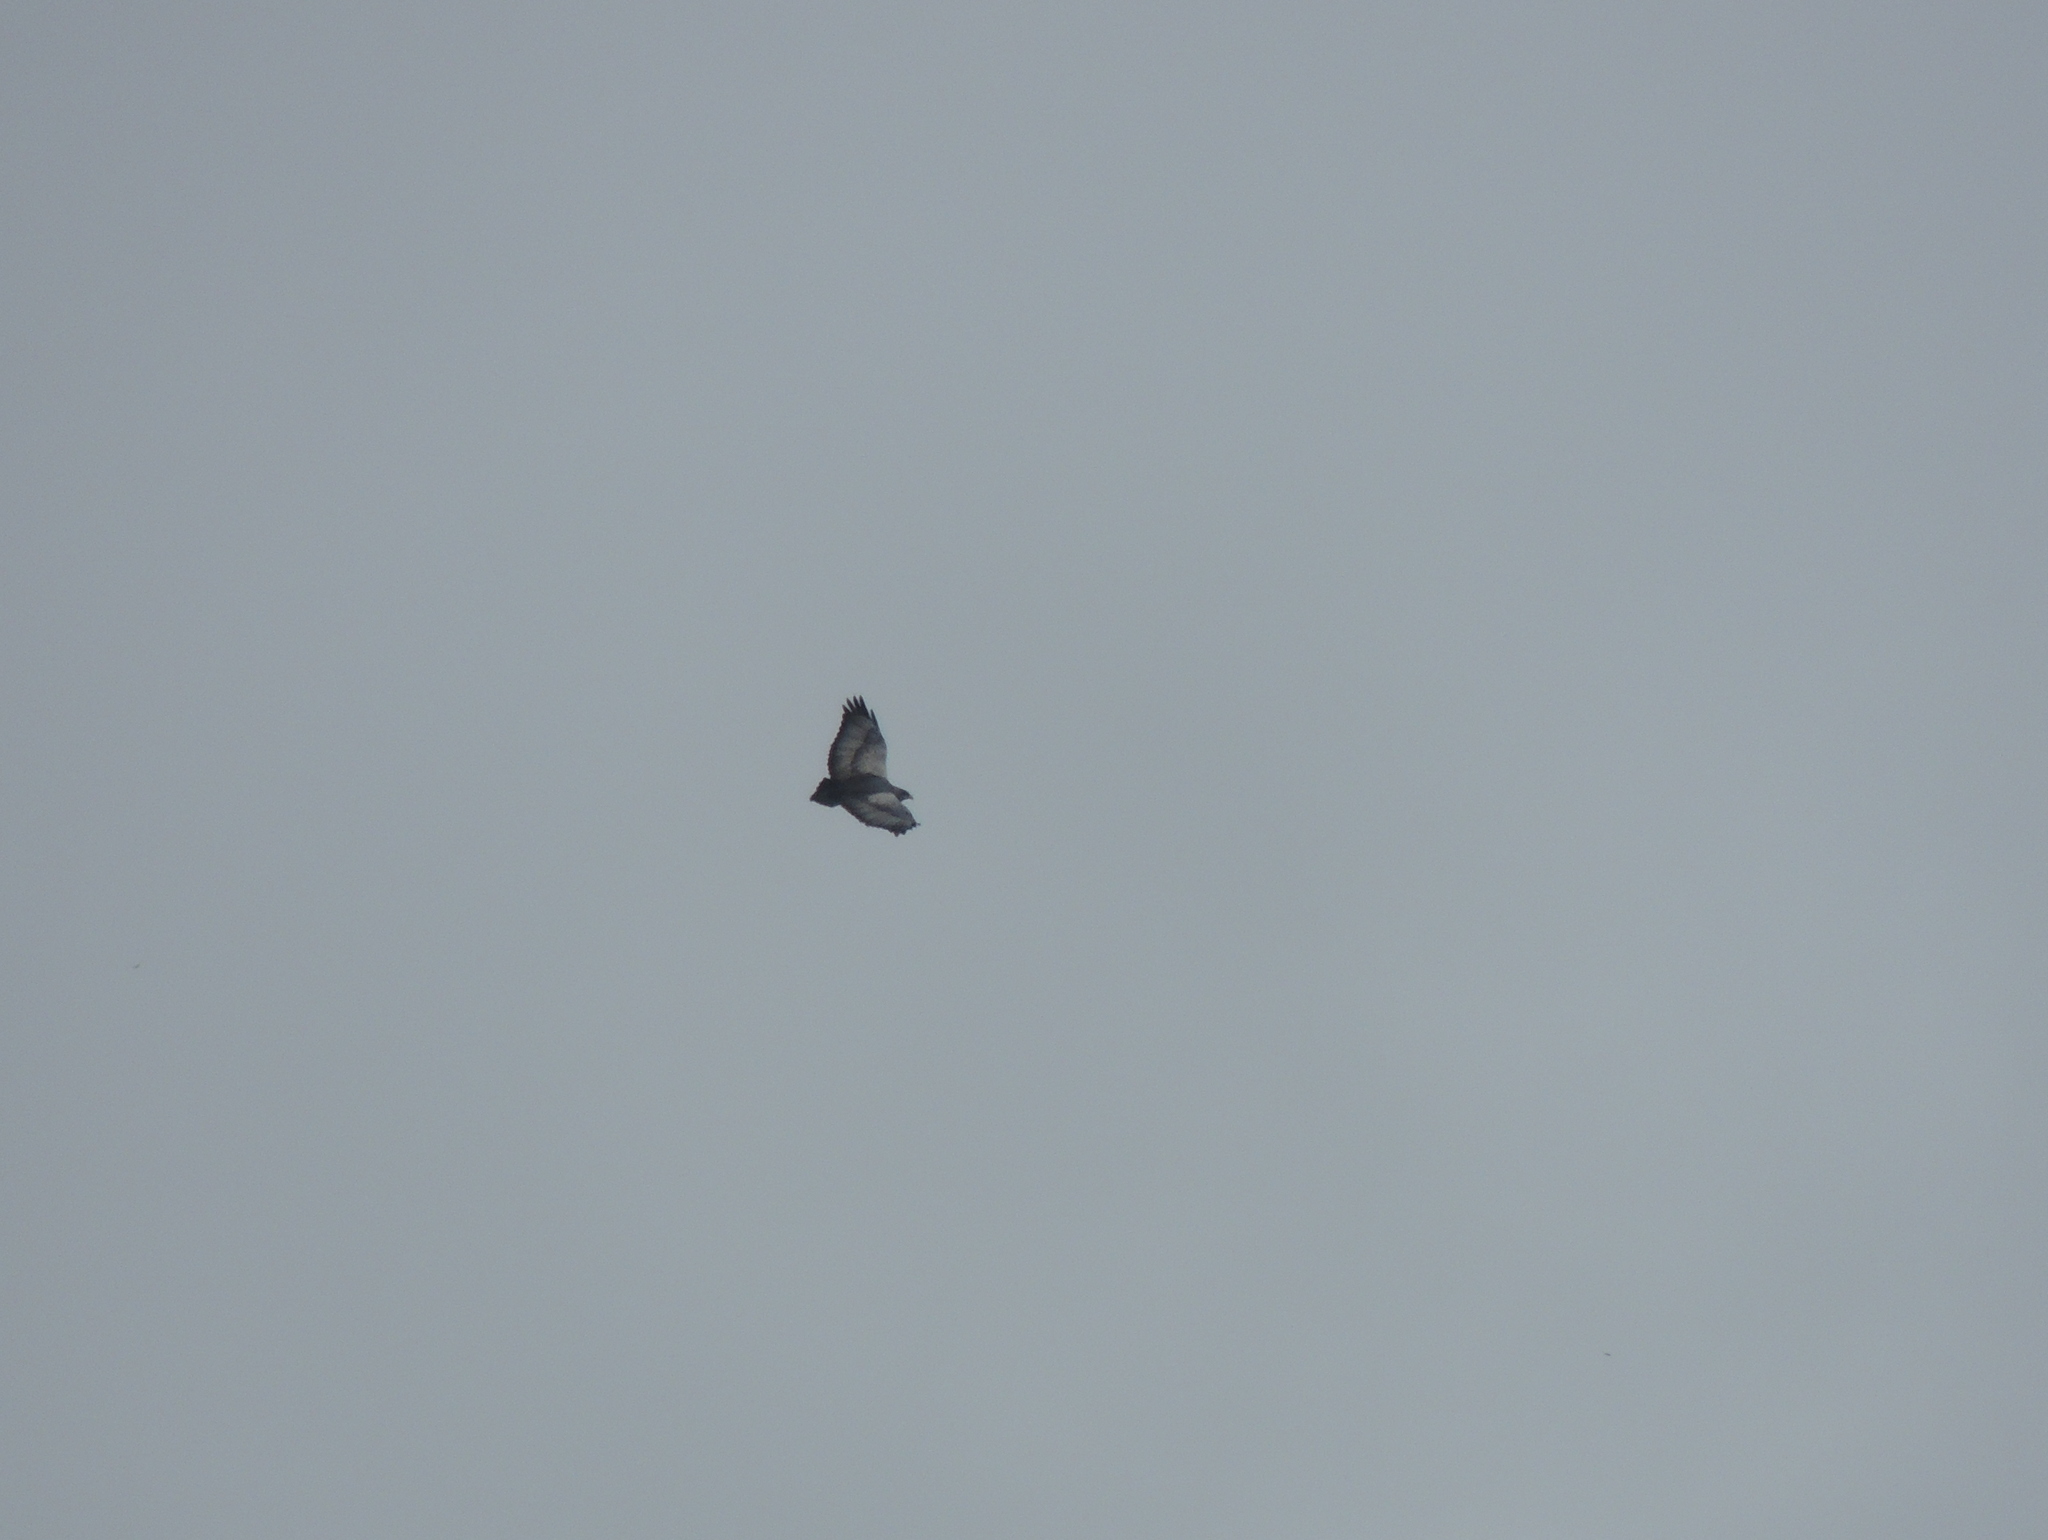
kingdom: Animalia
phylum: Chordata
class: Aves
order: Accipitriformes
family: Accipitridae
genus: Geranoaetus
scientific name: Geranoaetus melanoleucus
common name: Black-chested buzzard-eagle
